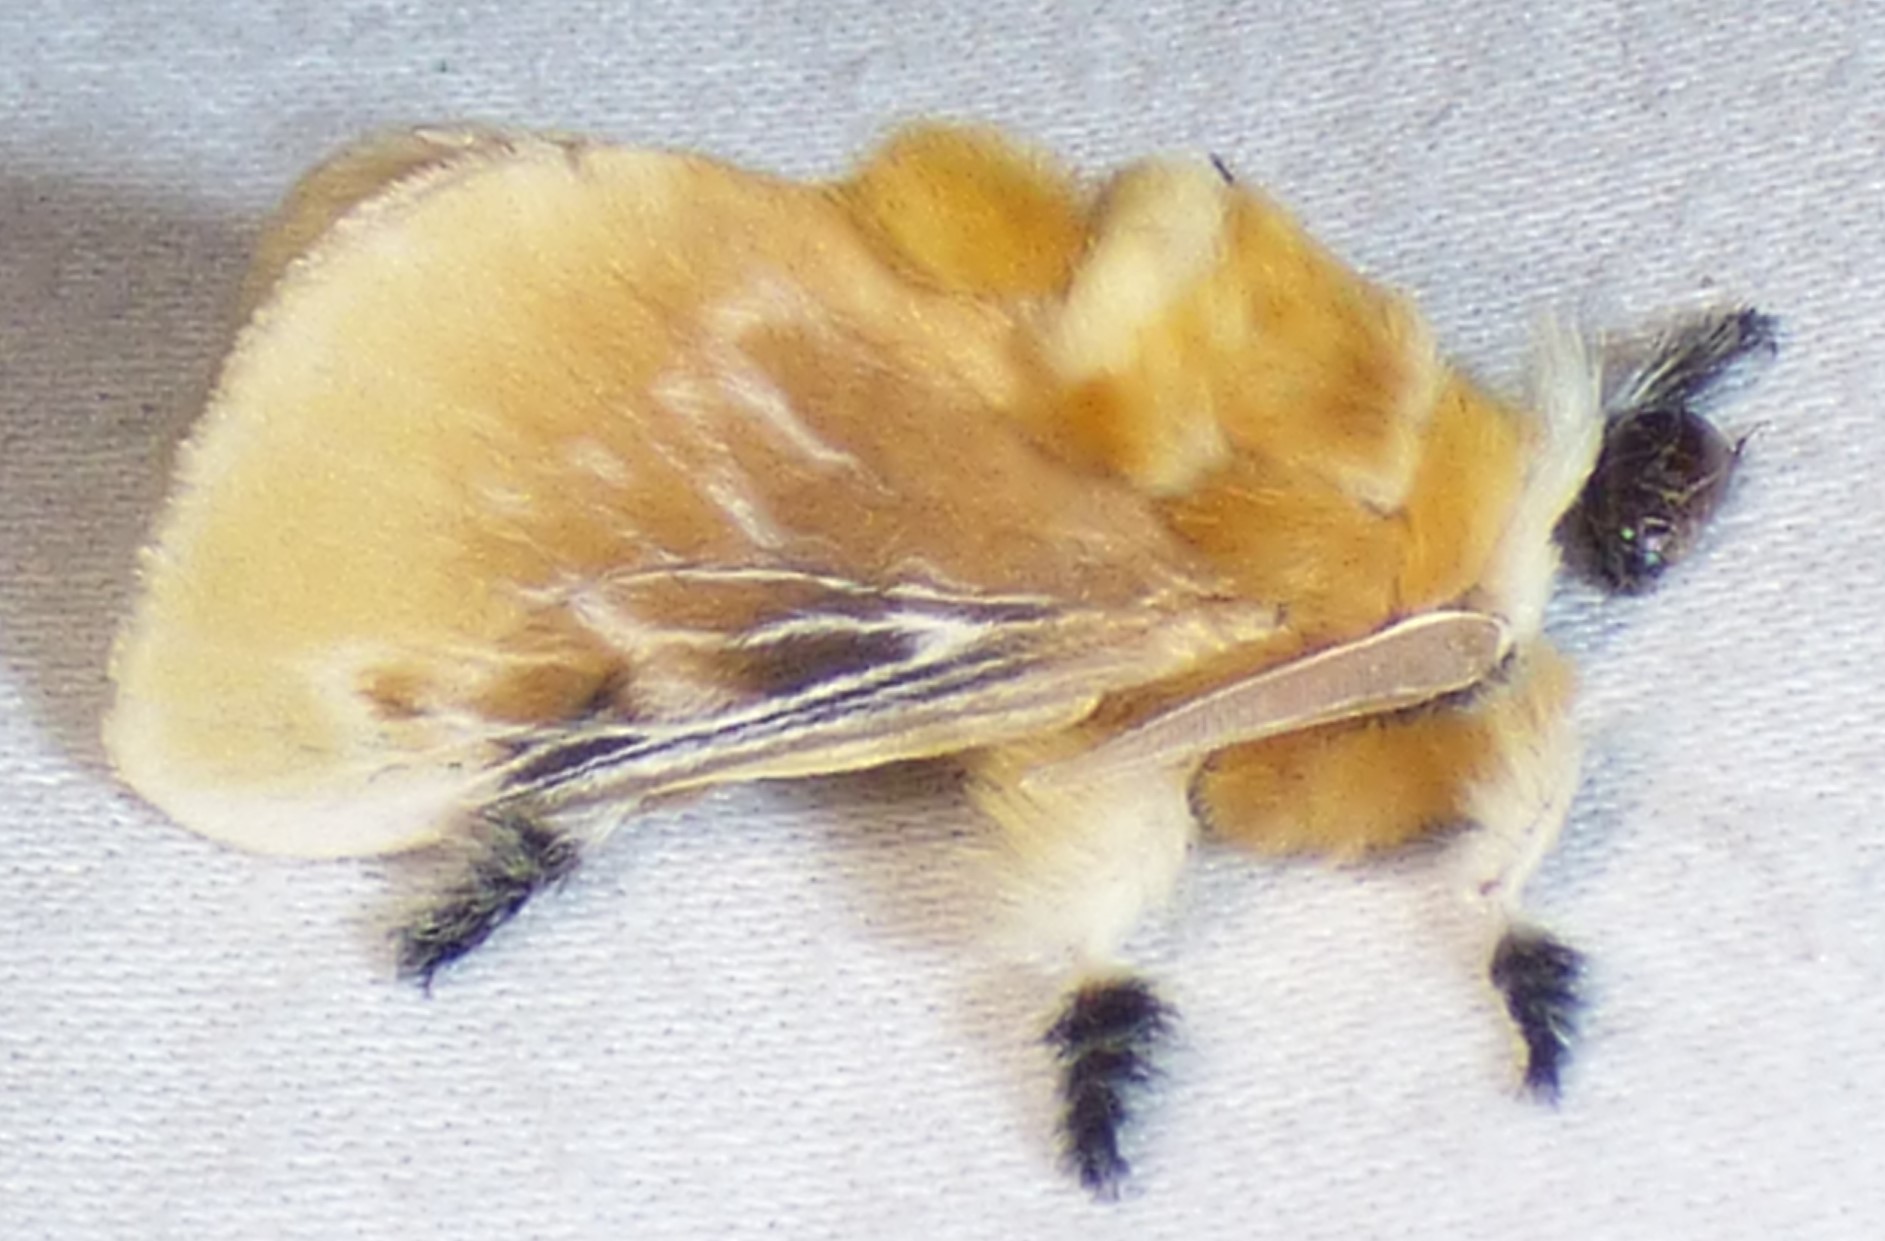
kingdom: Animalia
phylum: Arthropoda
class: Insecta
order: Lepidoptera
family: Megalopygidae
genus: Megalopyge
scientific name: Megalopyge opercularis
